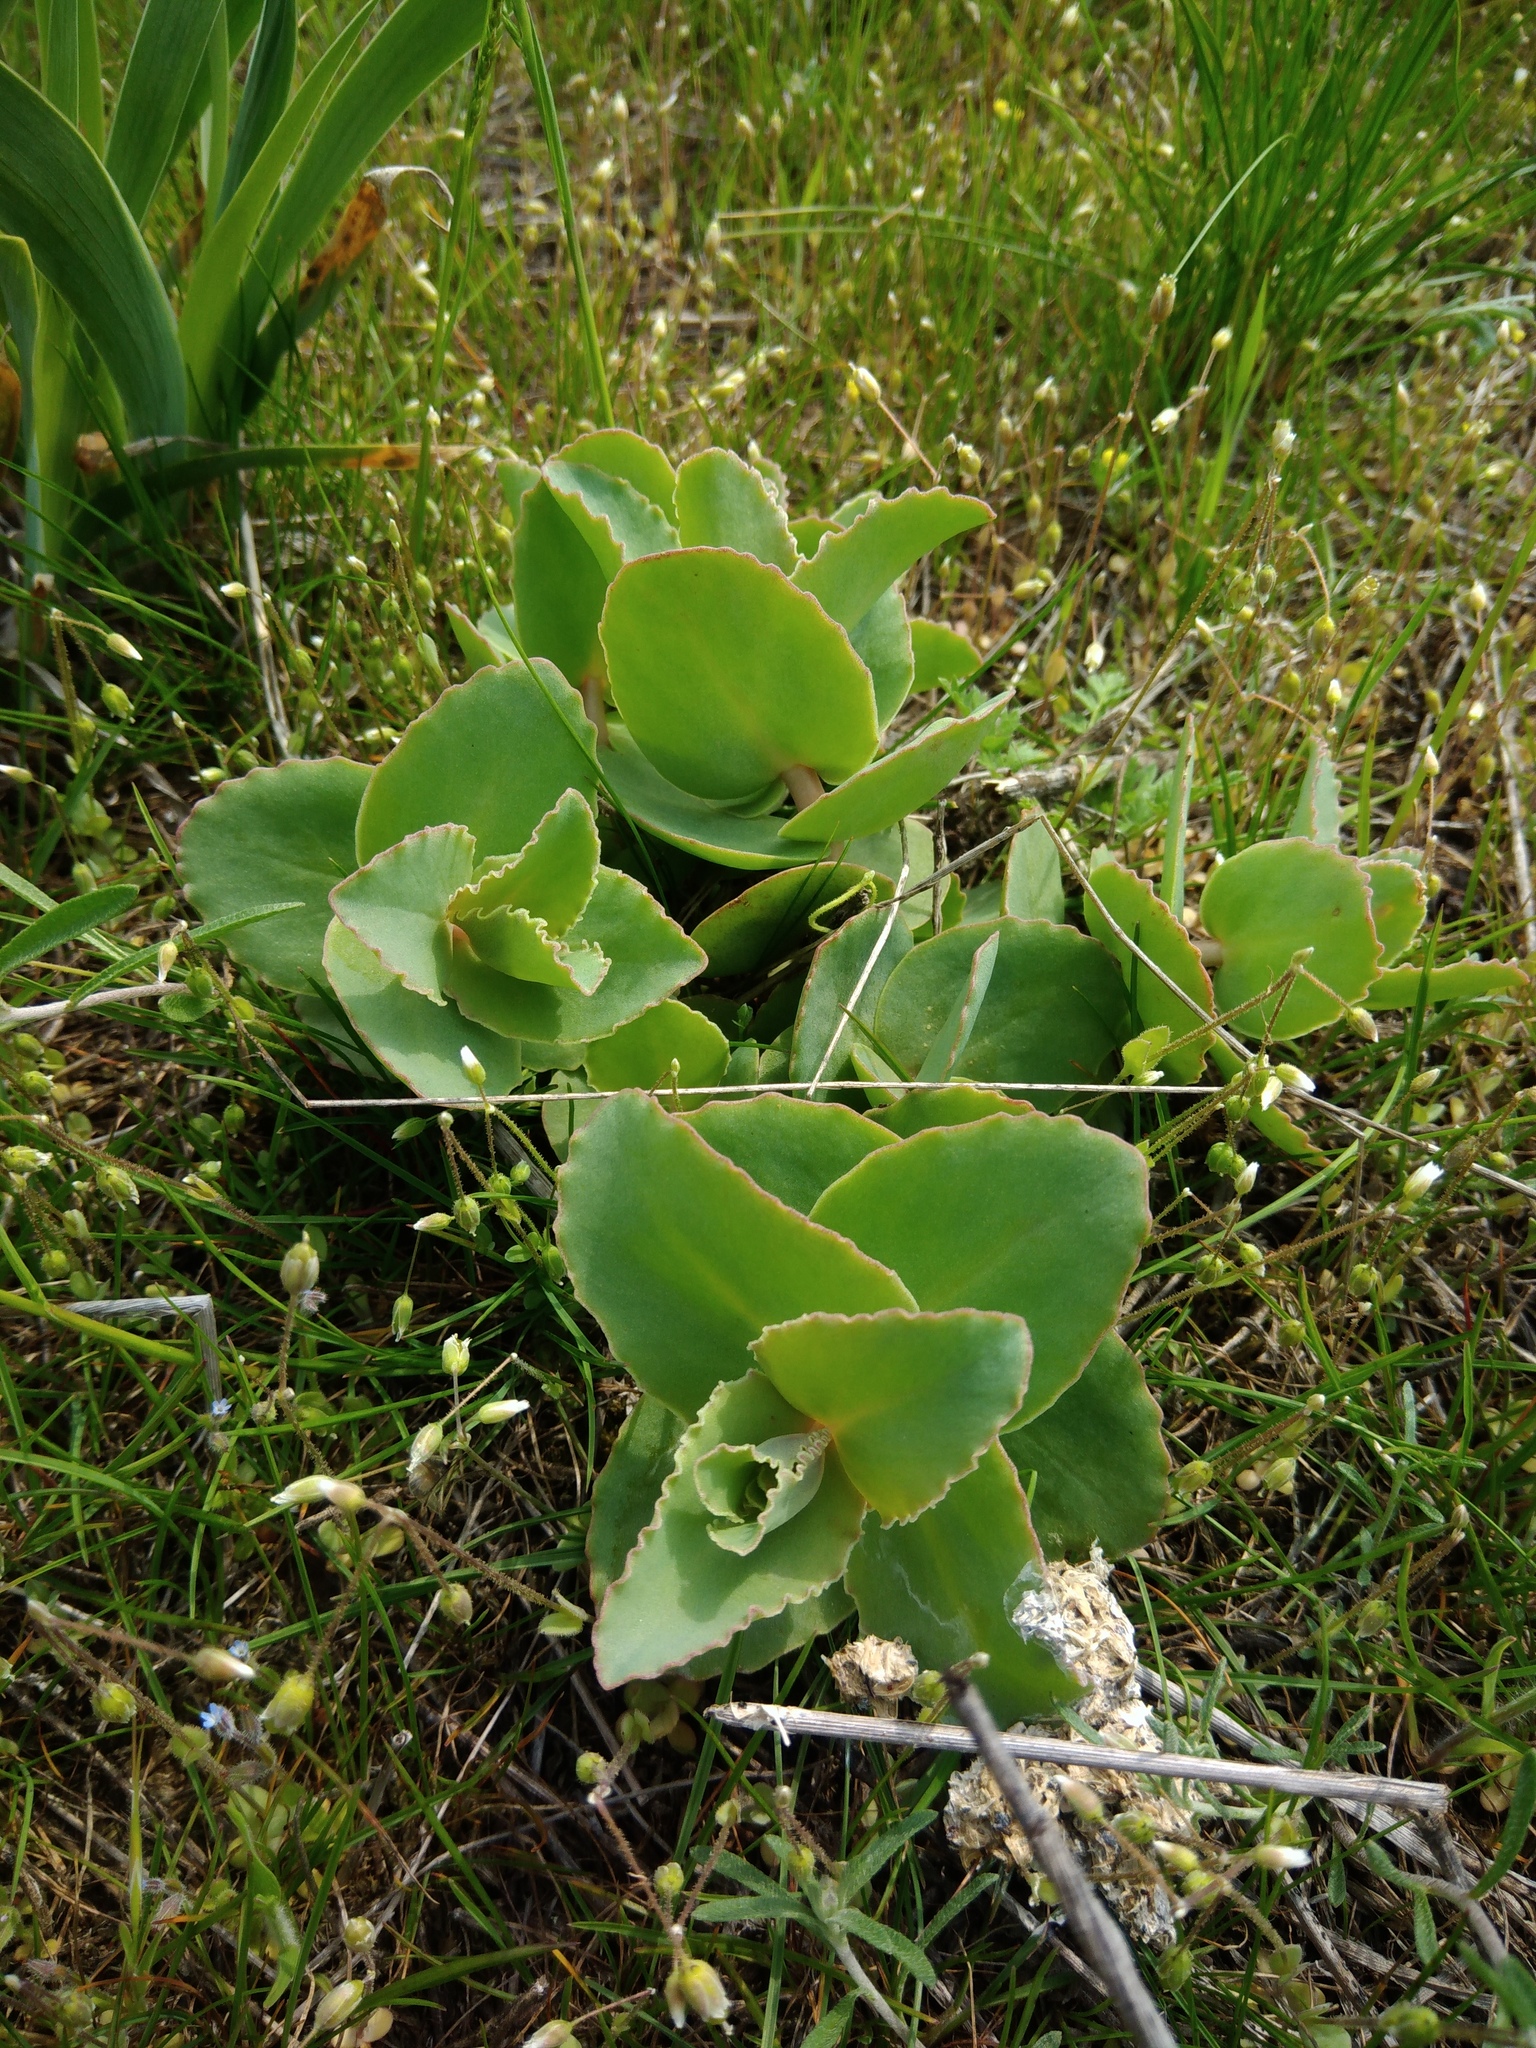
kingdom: Plantae
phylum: Tracheophyta
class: Magnoliopsida
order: Saxifragales
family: Crassulaceae
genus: Hylotelephium
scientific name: Hylotelephium maximum
